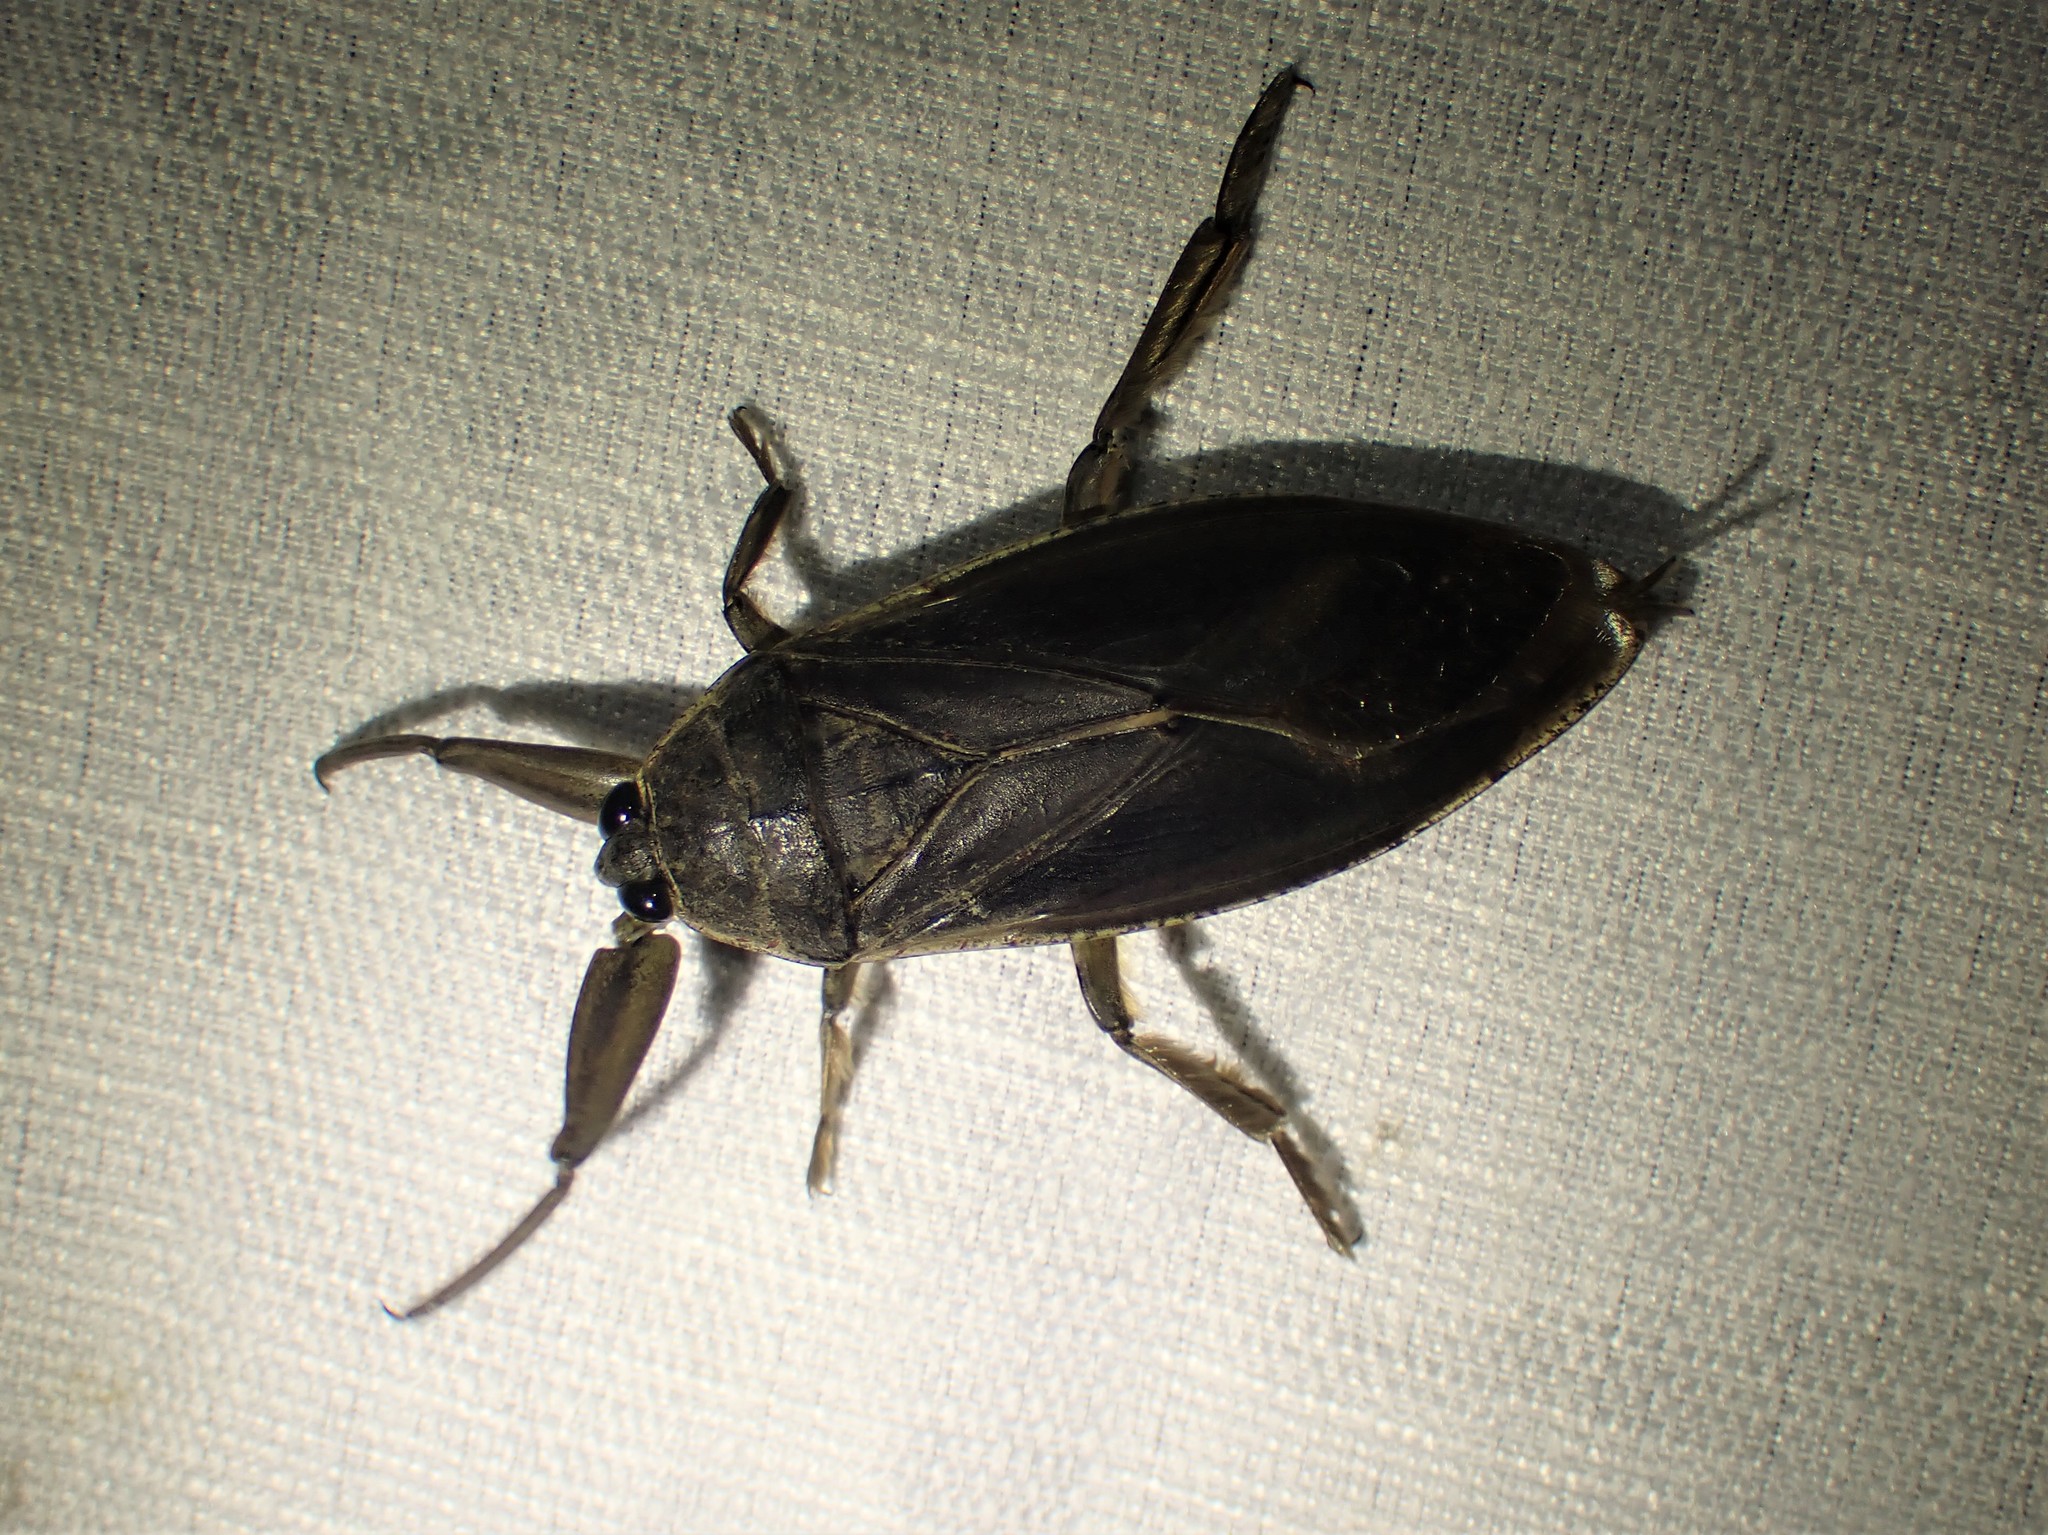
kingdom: Animalia
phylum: Arthropoda
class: Insecta
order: Hemiptera
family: Belostomatidae
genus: Lethocerus
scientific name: Lethocerus americanus
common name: Giant water bug
